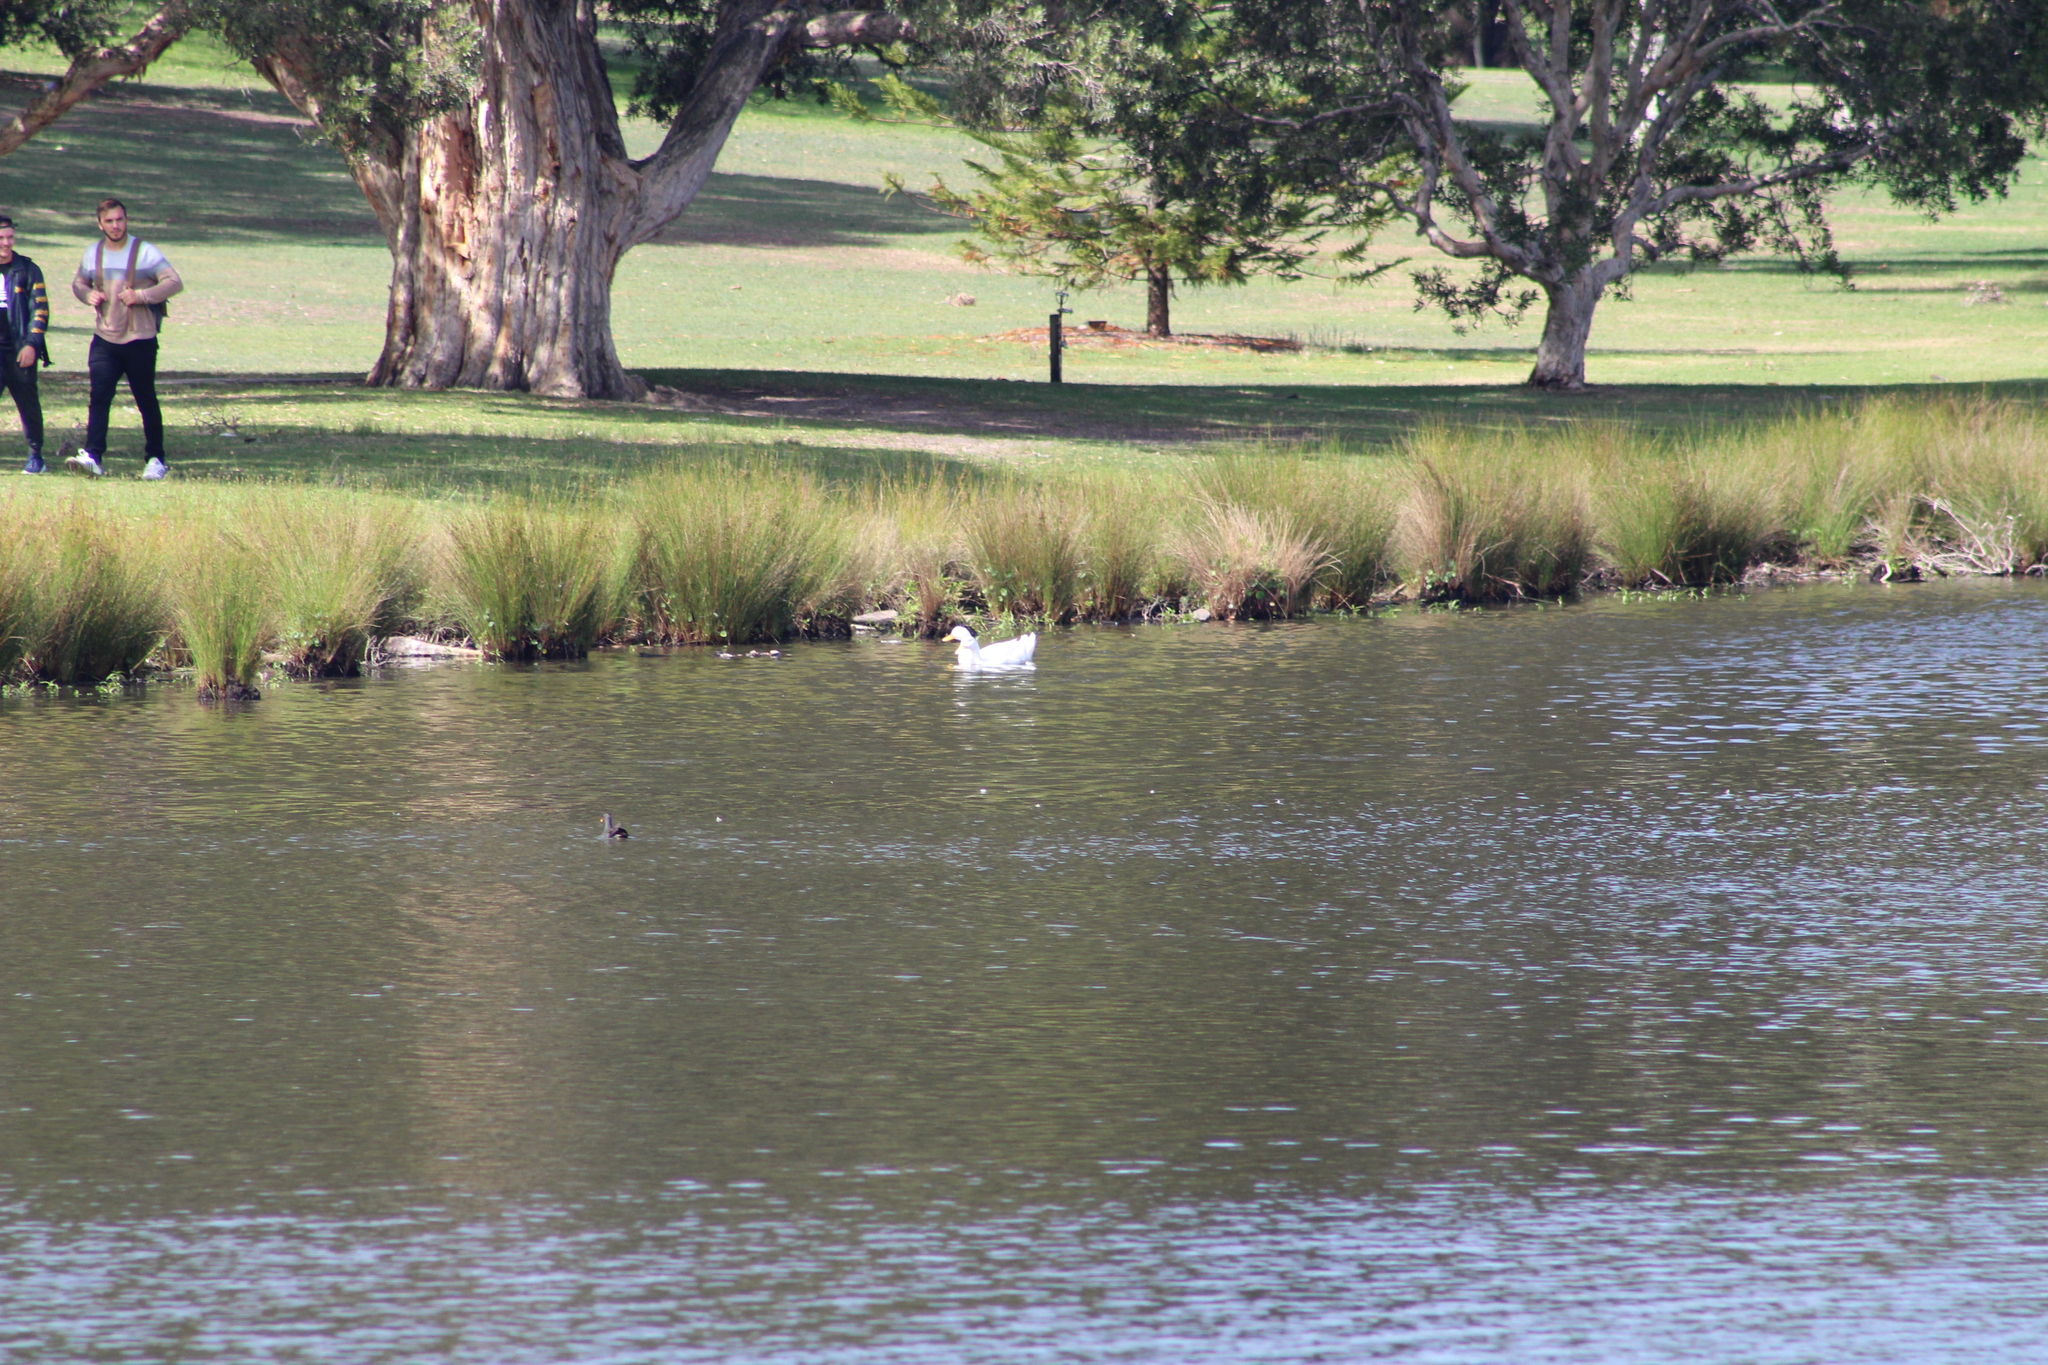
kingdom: Animalia
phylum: Chordata
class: Aves
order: Anseriformes
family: Anatidae
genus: Anas
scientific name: Anas platyrhynchos
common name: Mallard
